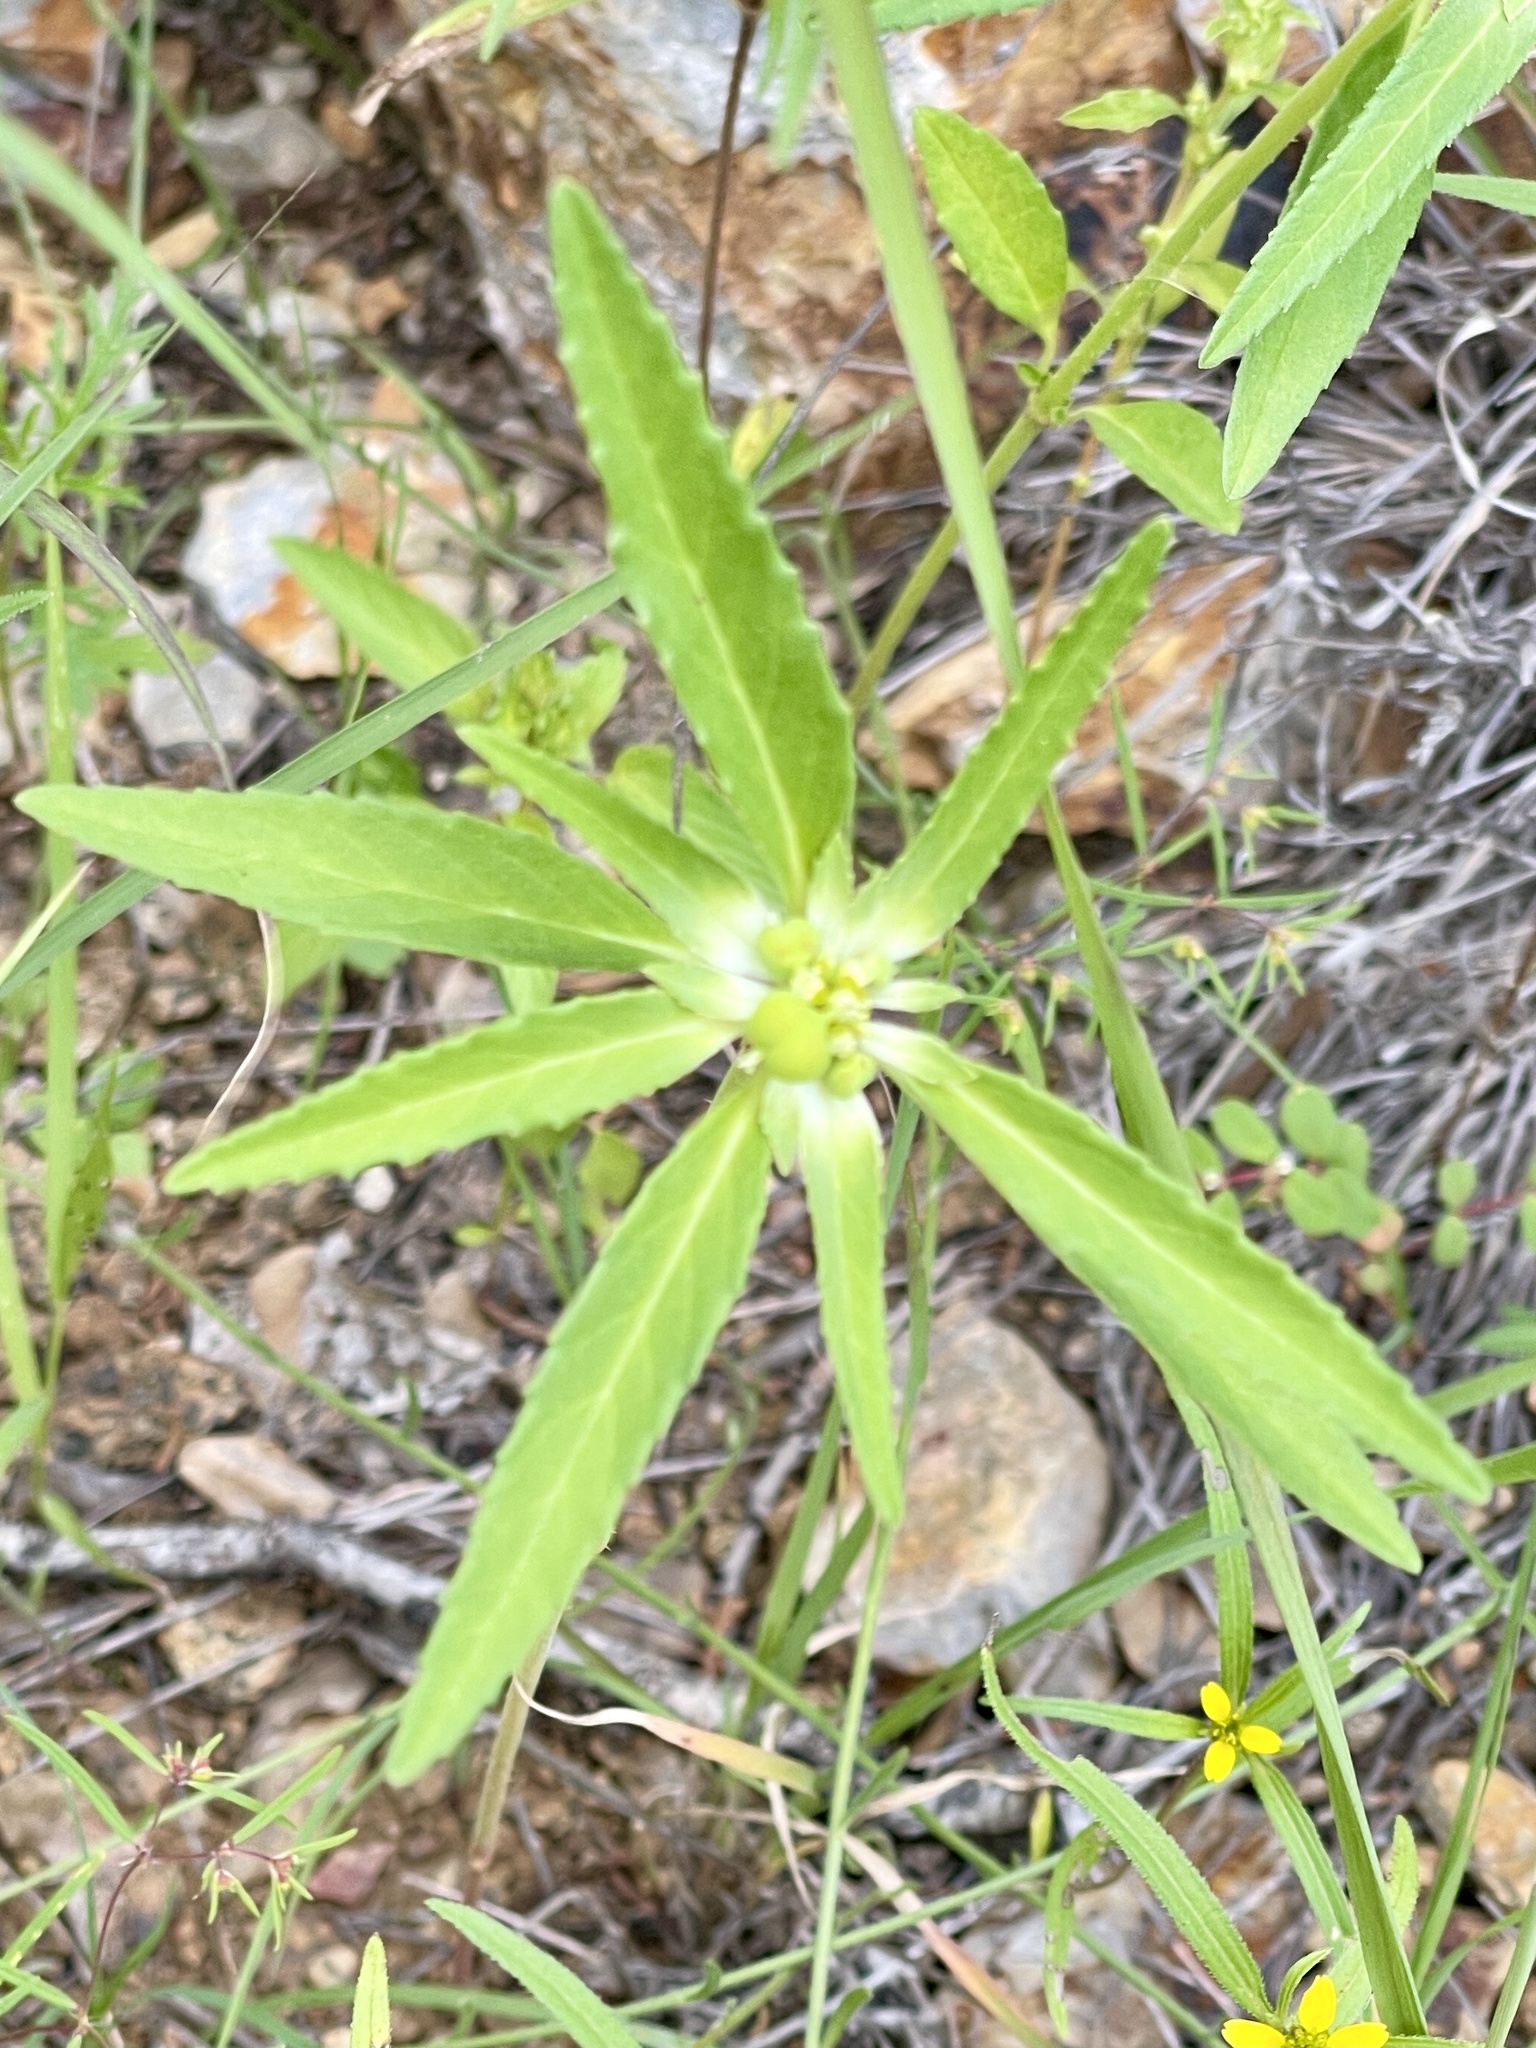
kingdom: Plantae
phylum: Tracheophyta
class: Magnoliopsida
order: Malpighiales
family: Euphorbiaceae
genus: Euphorbia
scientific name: Euphorbia davidii
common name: David's spurge
